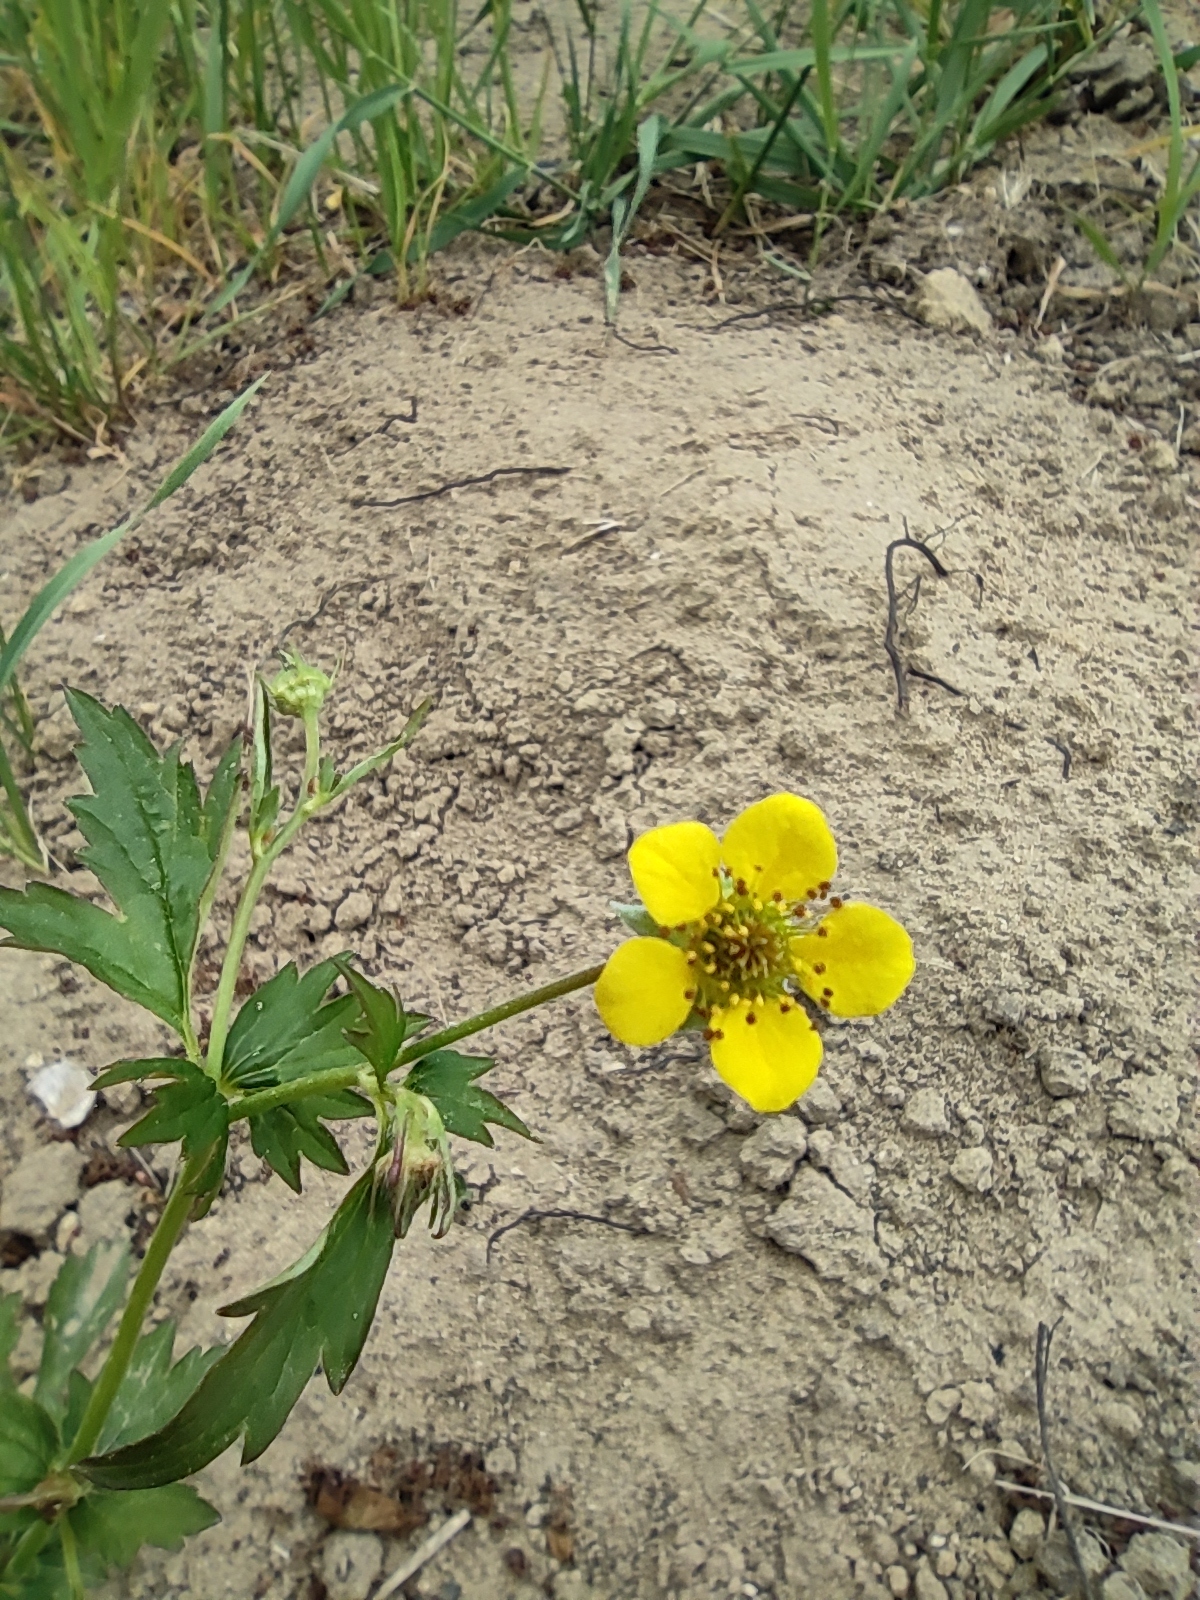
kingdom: Plantae
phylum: Tracheophyta
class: Magnoliopsida
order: Rosales
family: Rosaceae
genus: Geum
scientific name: Geum urbanum
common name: Wood avens
